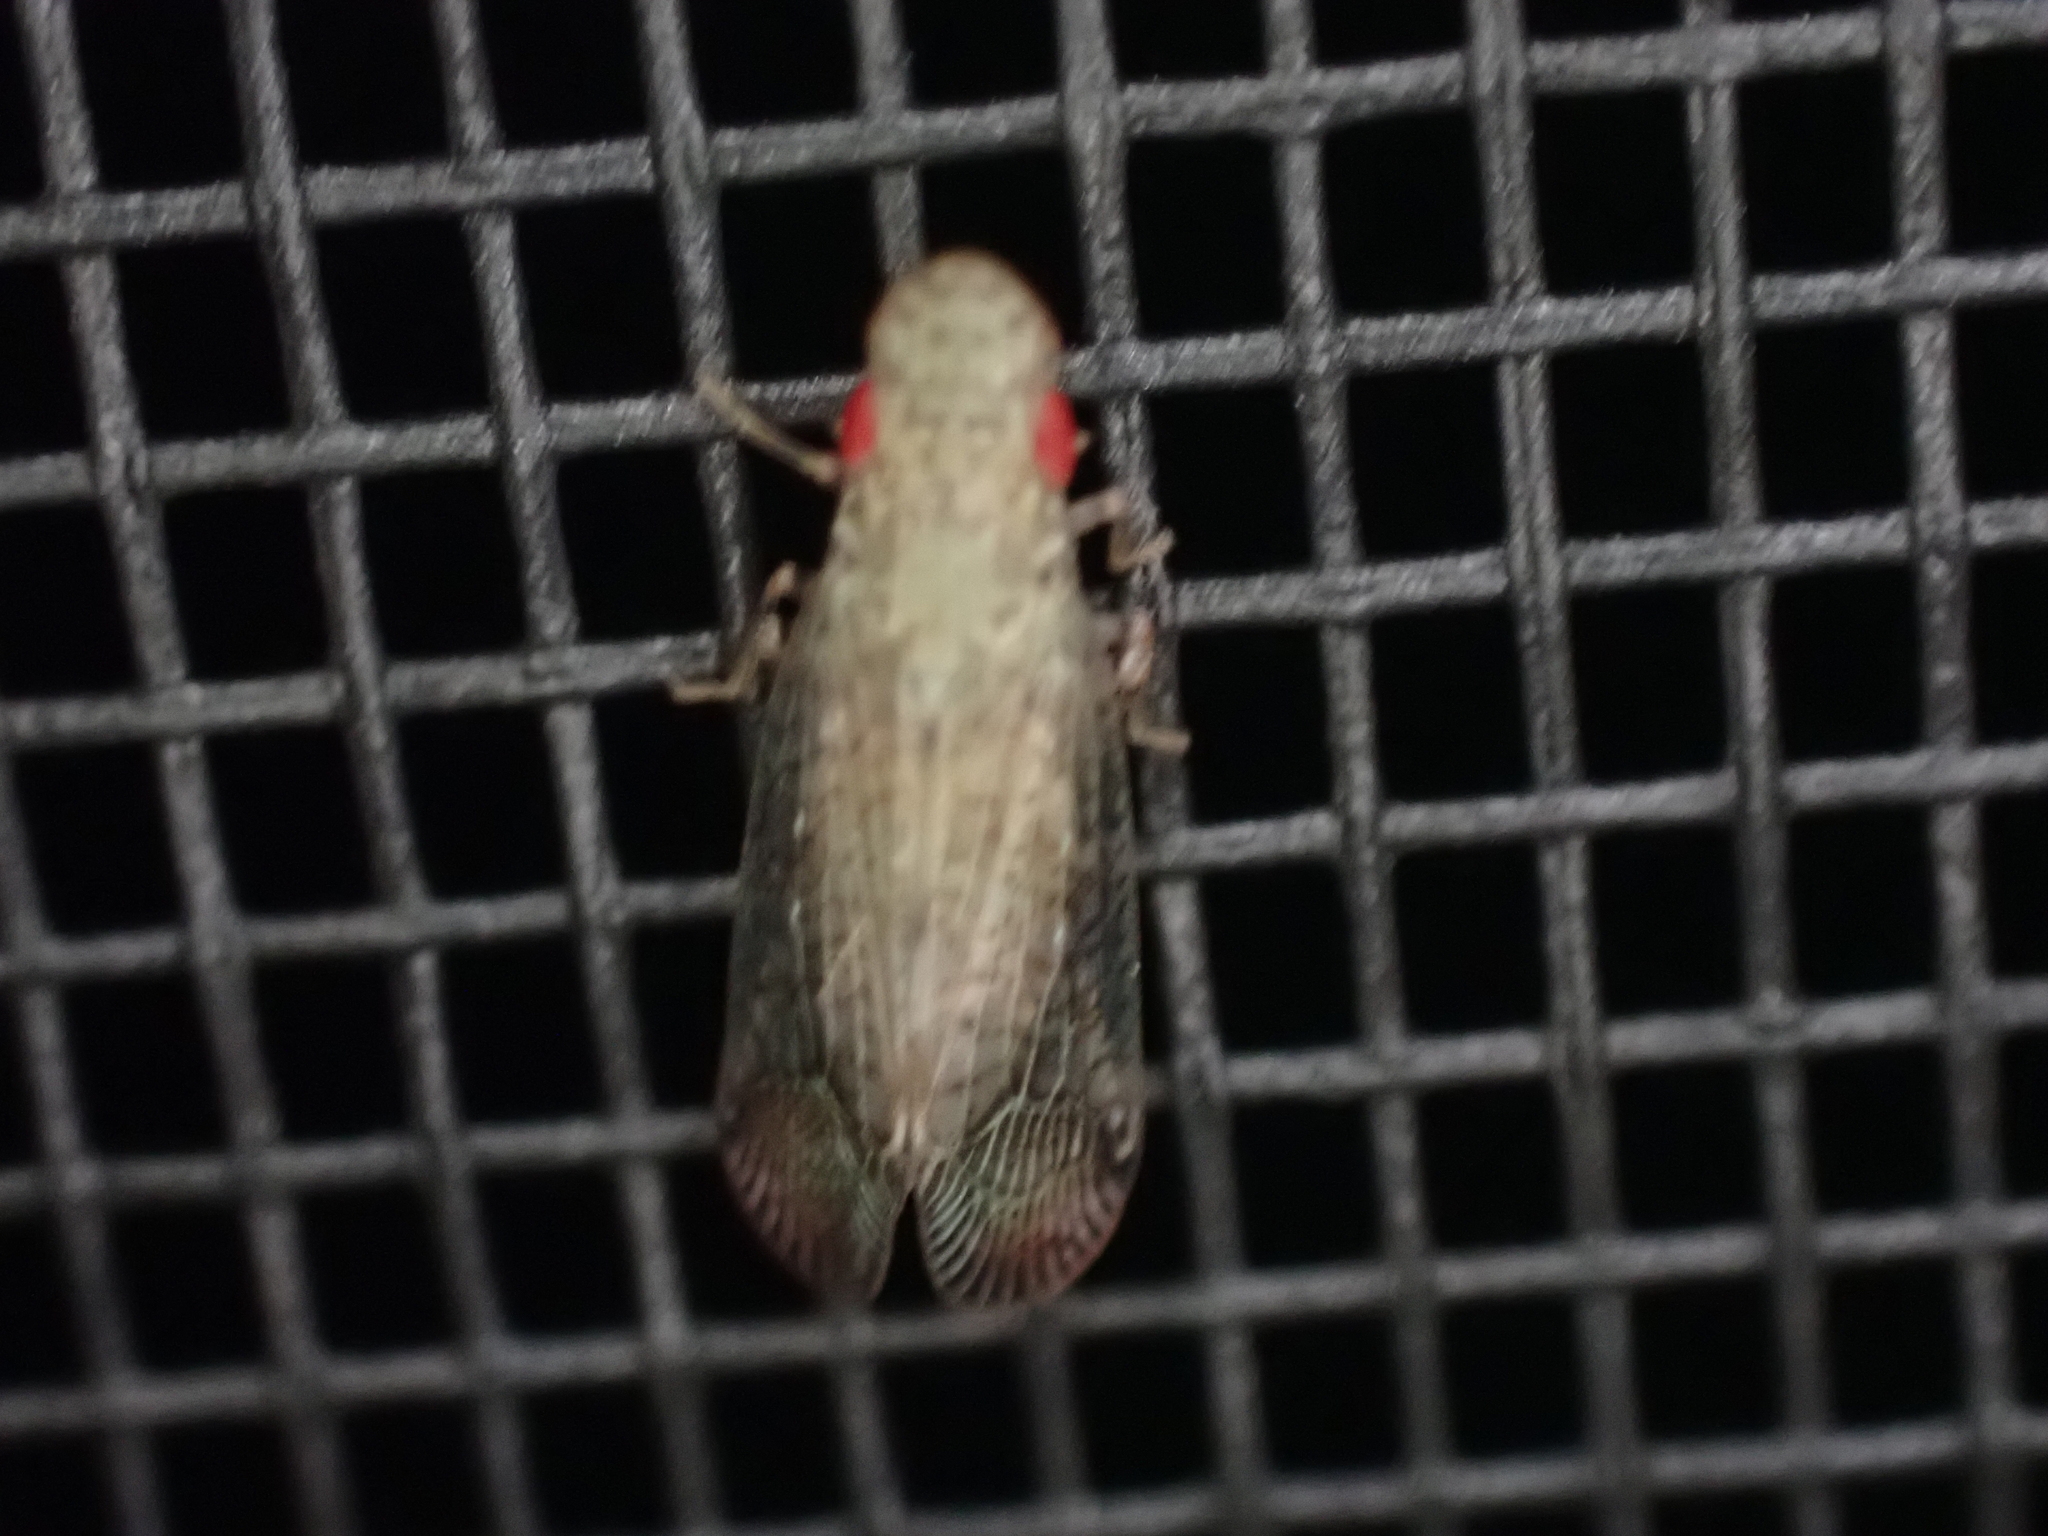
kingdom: Animalia
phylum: Arthropoda
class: Insecta
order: Hemiptera
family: Tropiduchidae
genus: Pelitropis
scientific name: Pelitropis rotulata
